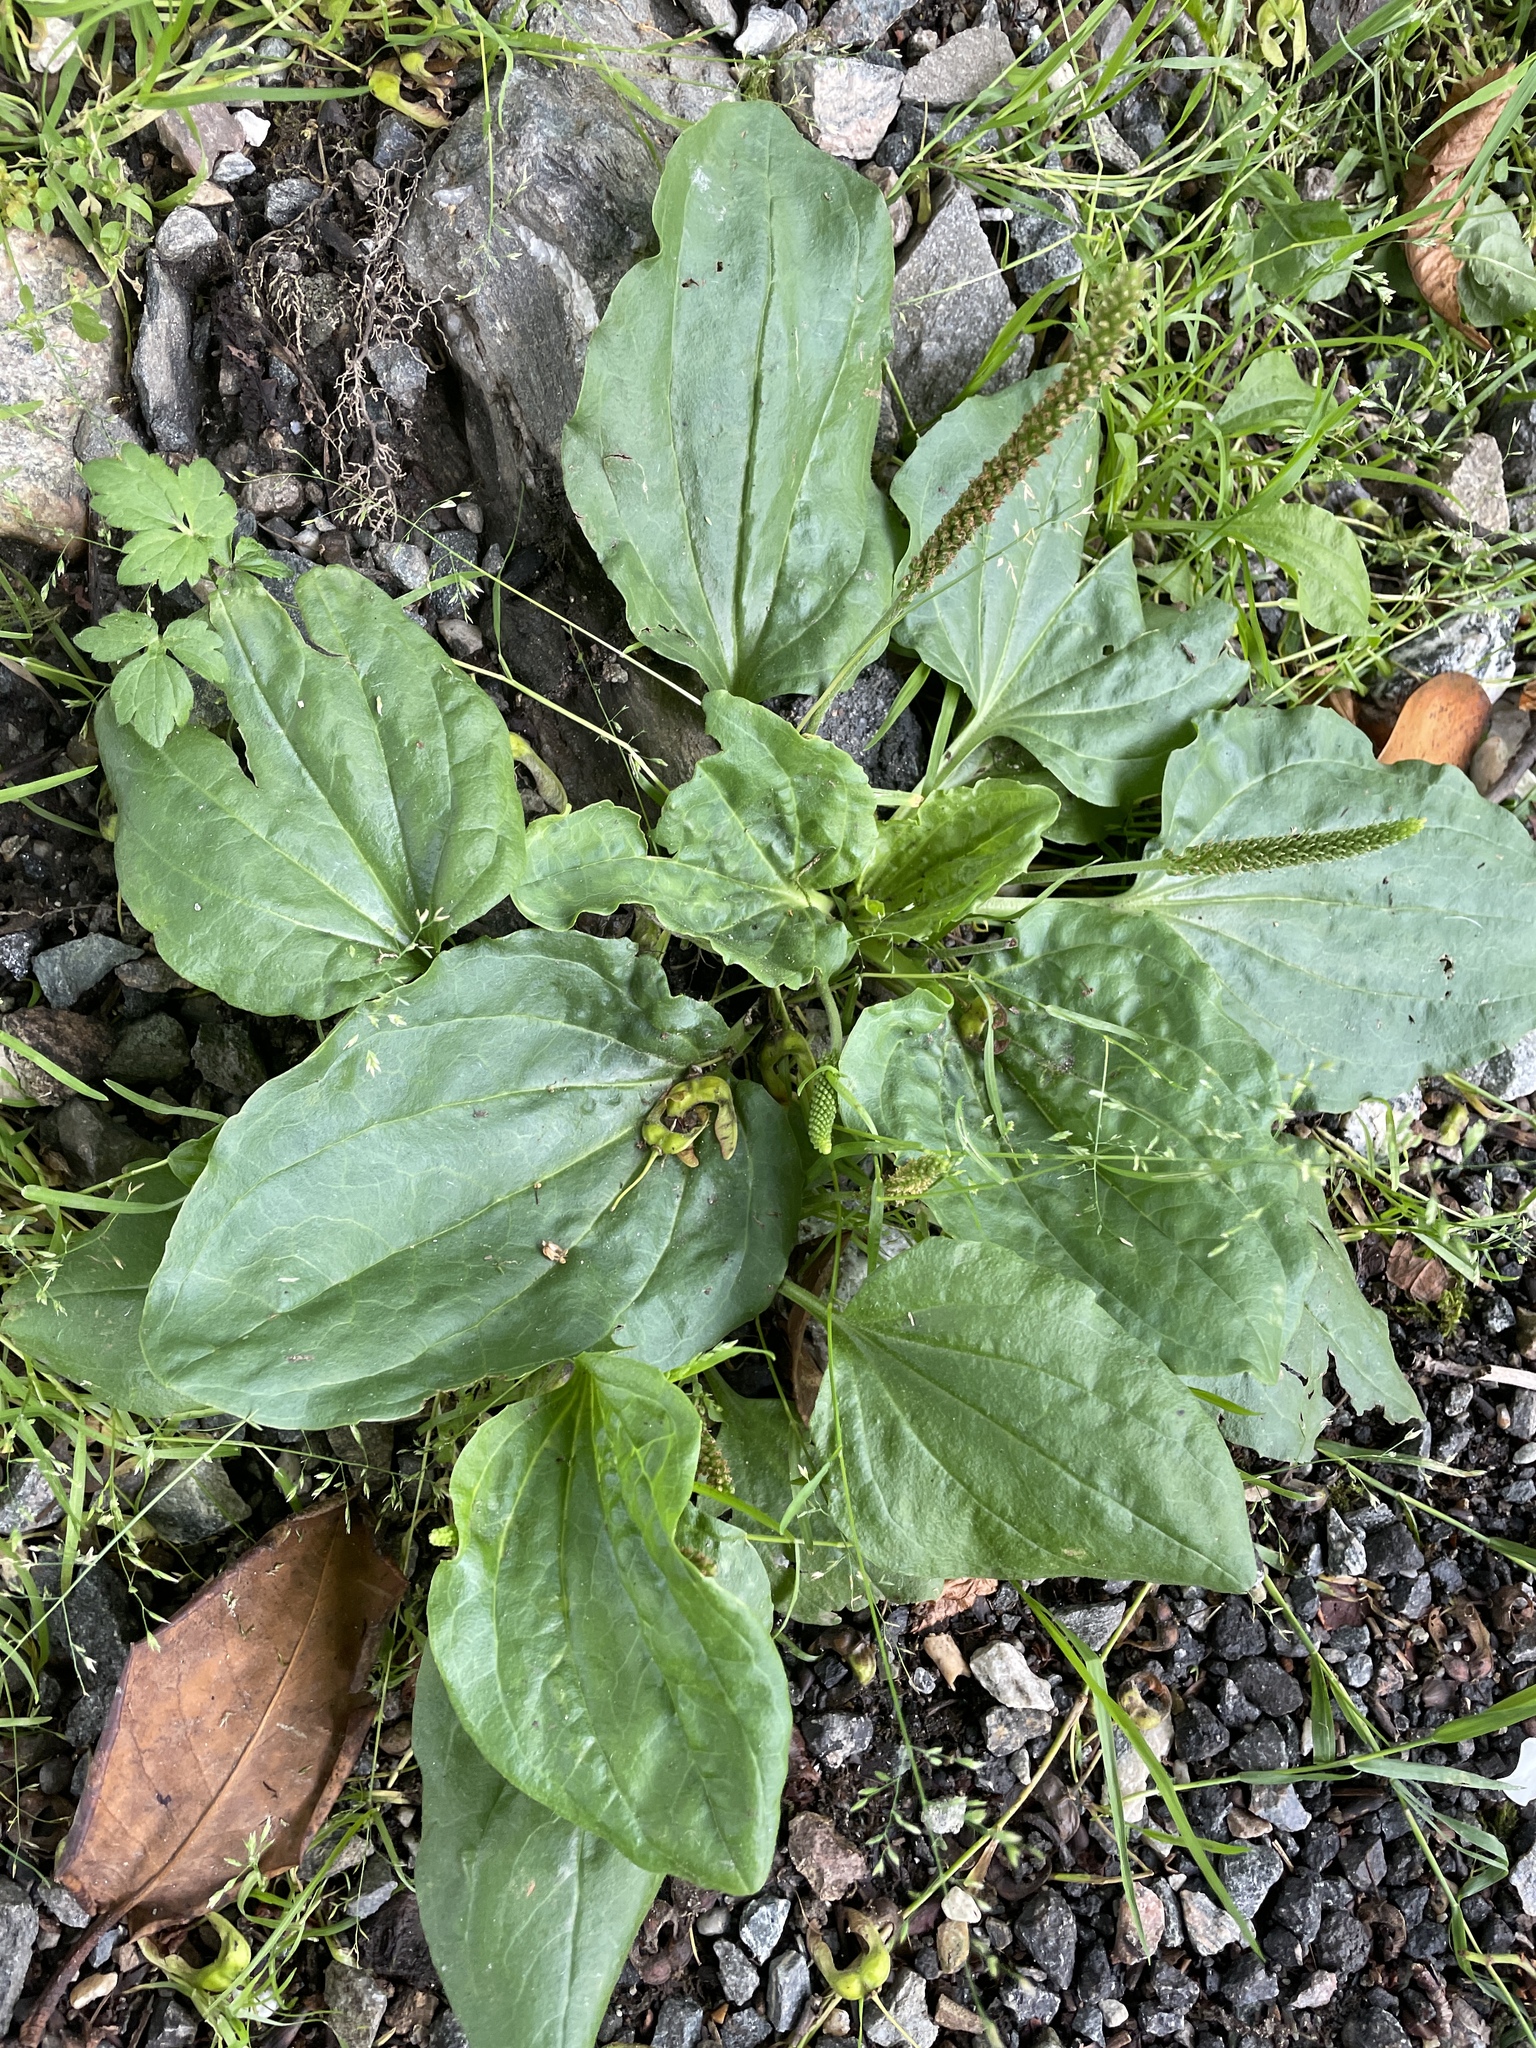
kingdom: Plantae
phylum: Tracheophyta
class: Magnoliopsida
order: Lamiales
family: Plantaginaceae
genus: Plantago
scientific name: Plantago major
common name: Common plantain
